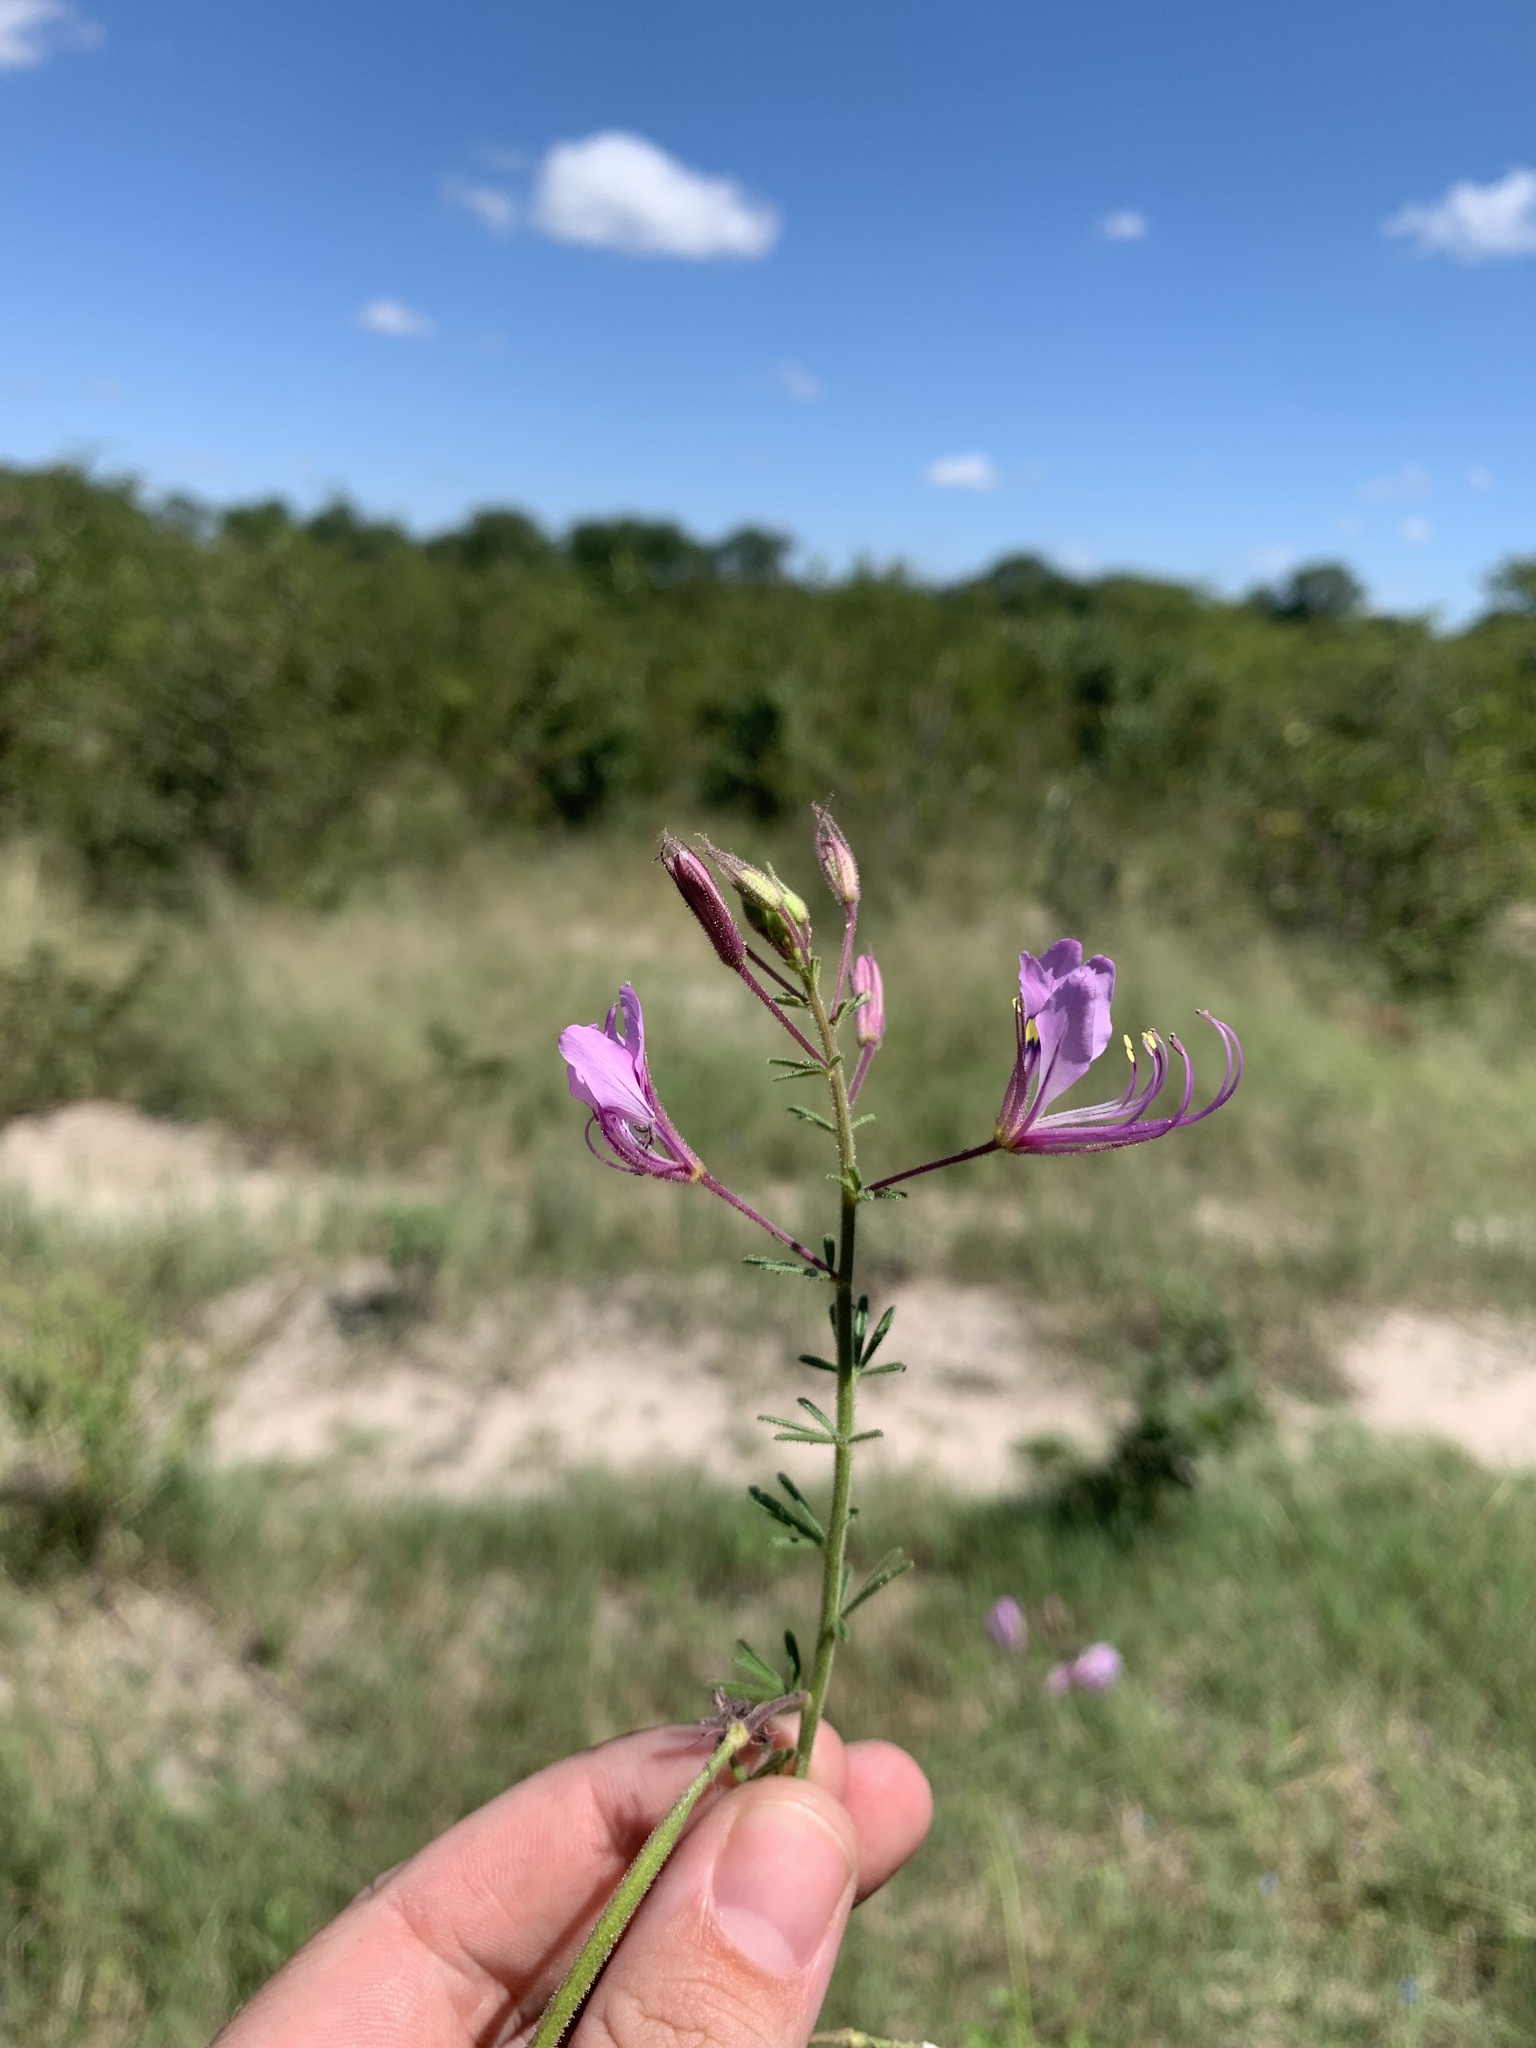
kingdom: Plantae
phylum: Tracheophyta
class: Magnoliopsida
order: Brassicales
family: Cleomaceae
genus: Sieruela
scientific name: Sieruela
